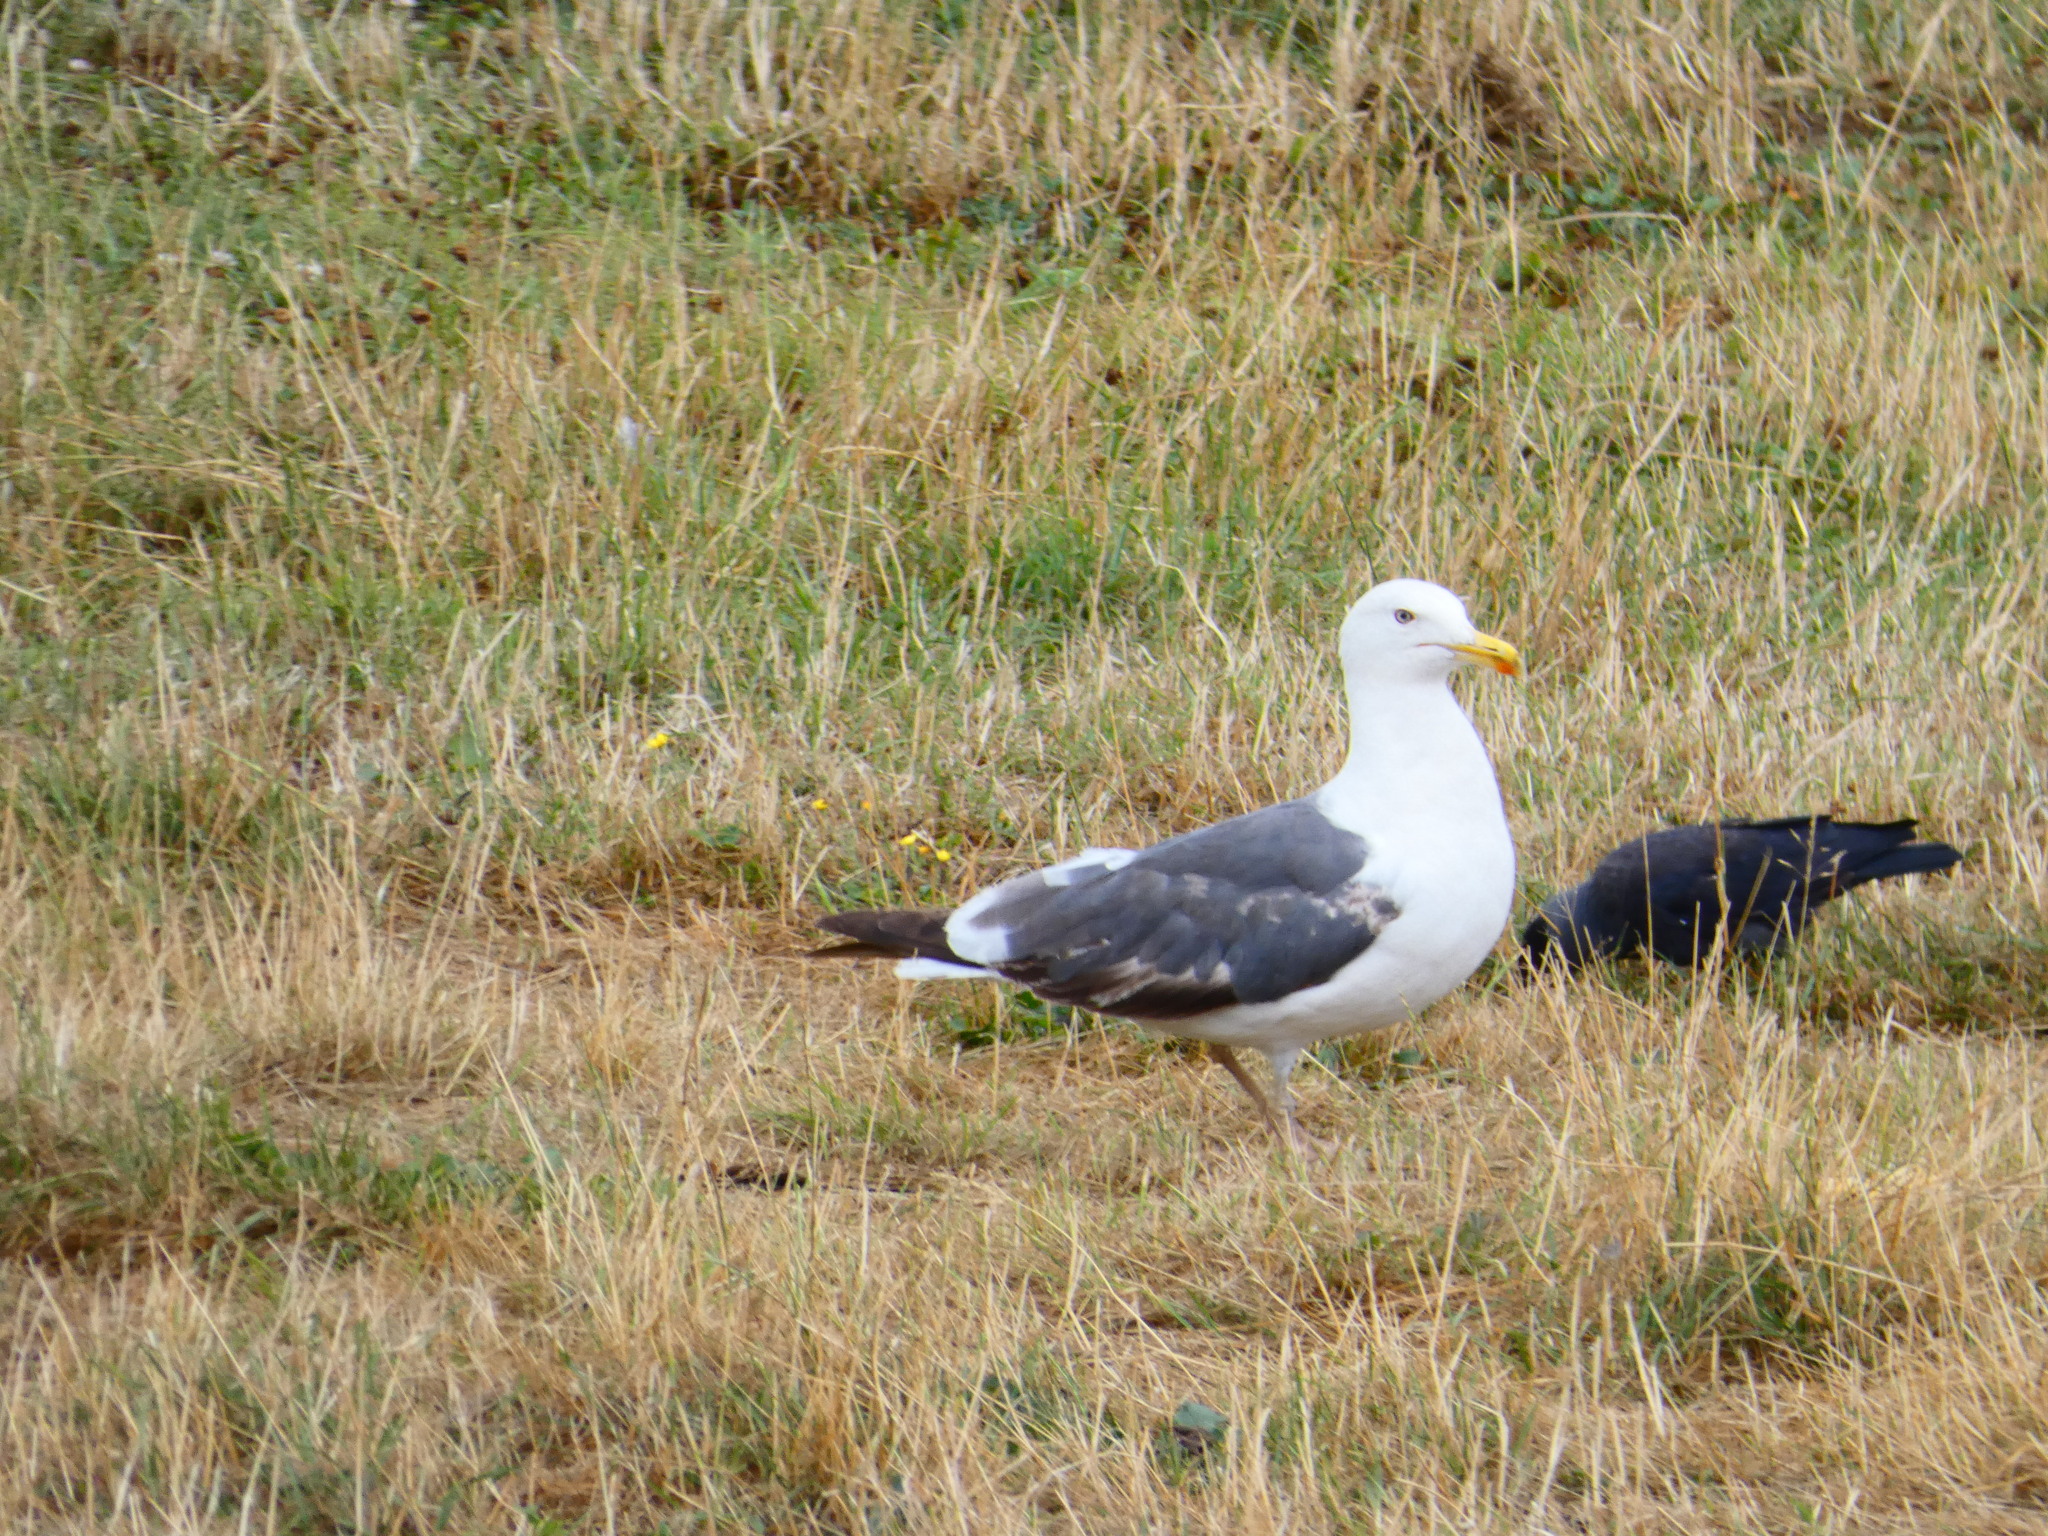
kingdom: Animalia
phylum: Chordata
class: Aves
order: Charadriiformes
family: Laridae
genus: Larus
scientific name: Larus fuscus
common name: Lesser black-backed gull
